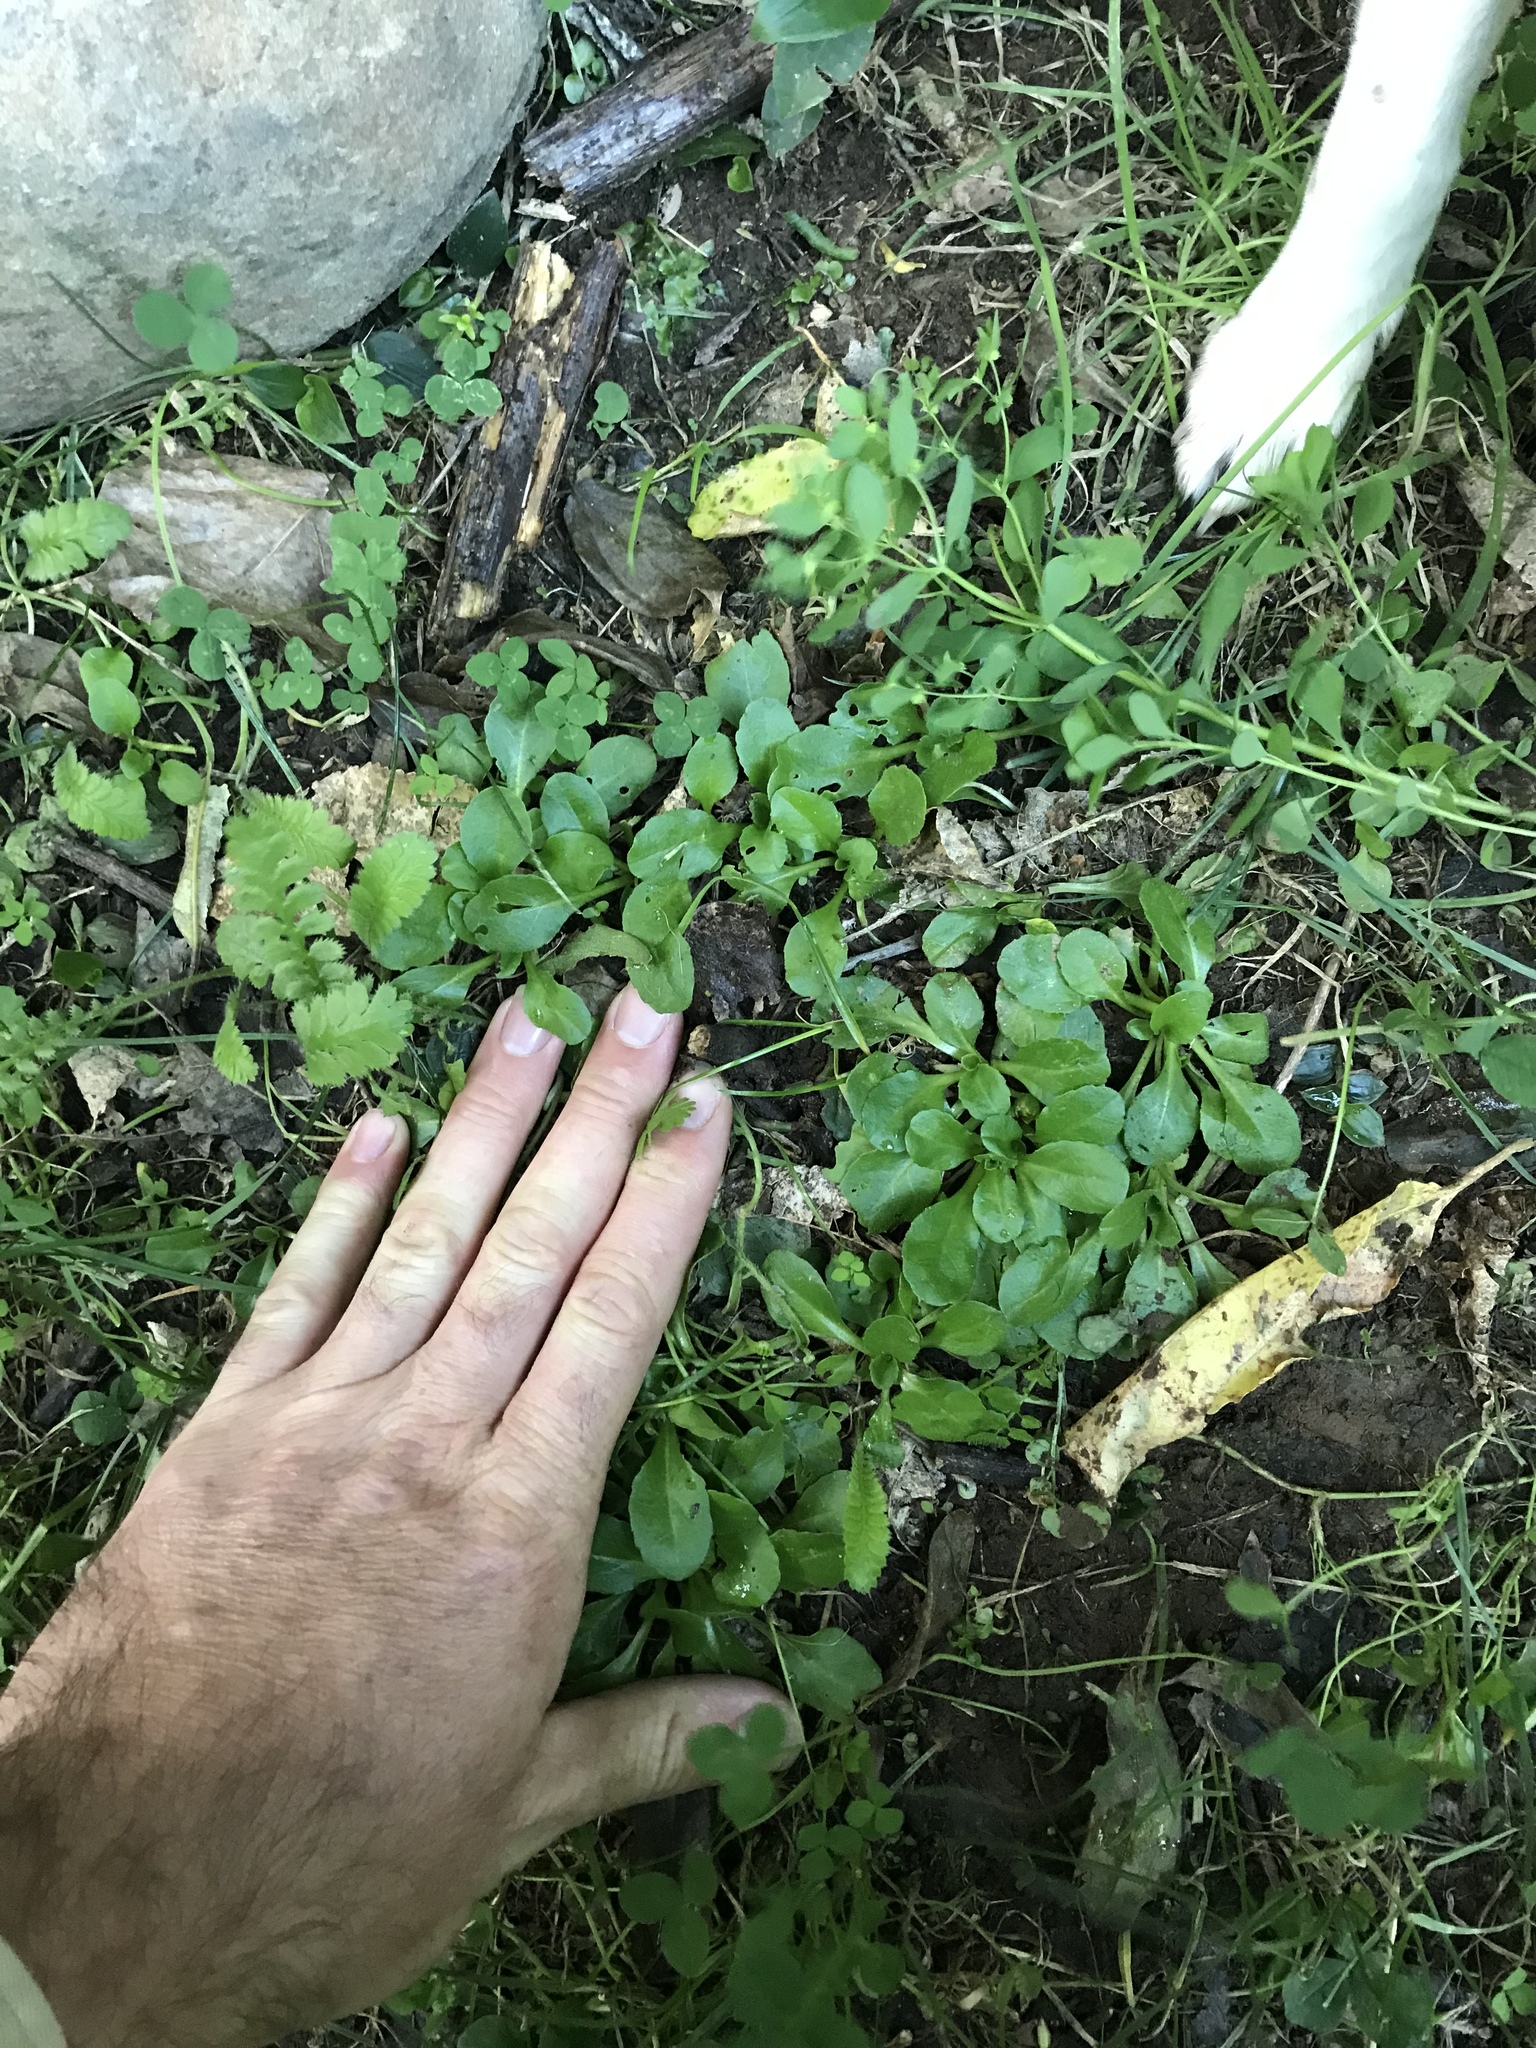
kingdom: Plantae
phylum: Tracheophyta
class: Magnoliopsida
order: Asterales
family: Asteraceae
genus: Bellis
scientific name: Bellis perennis
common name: Lawndaisy
